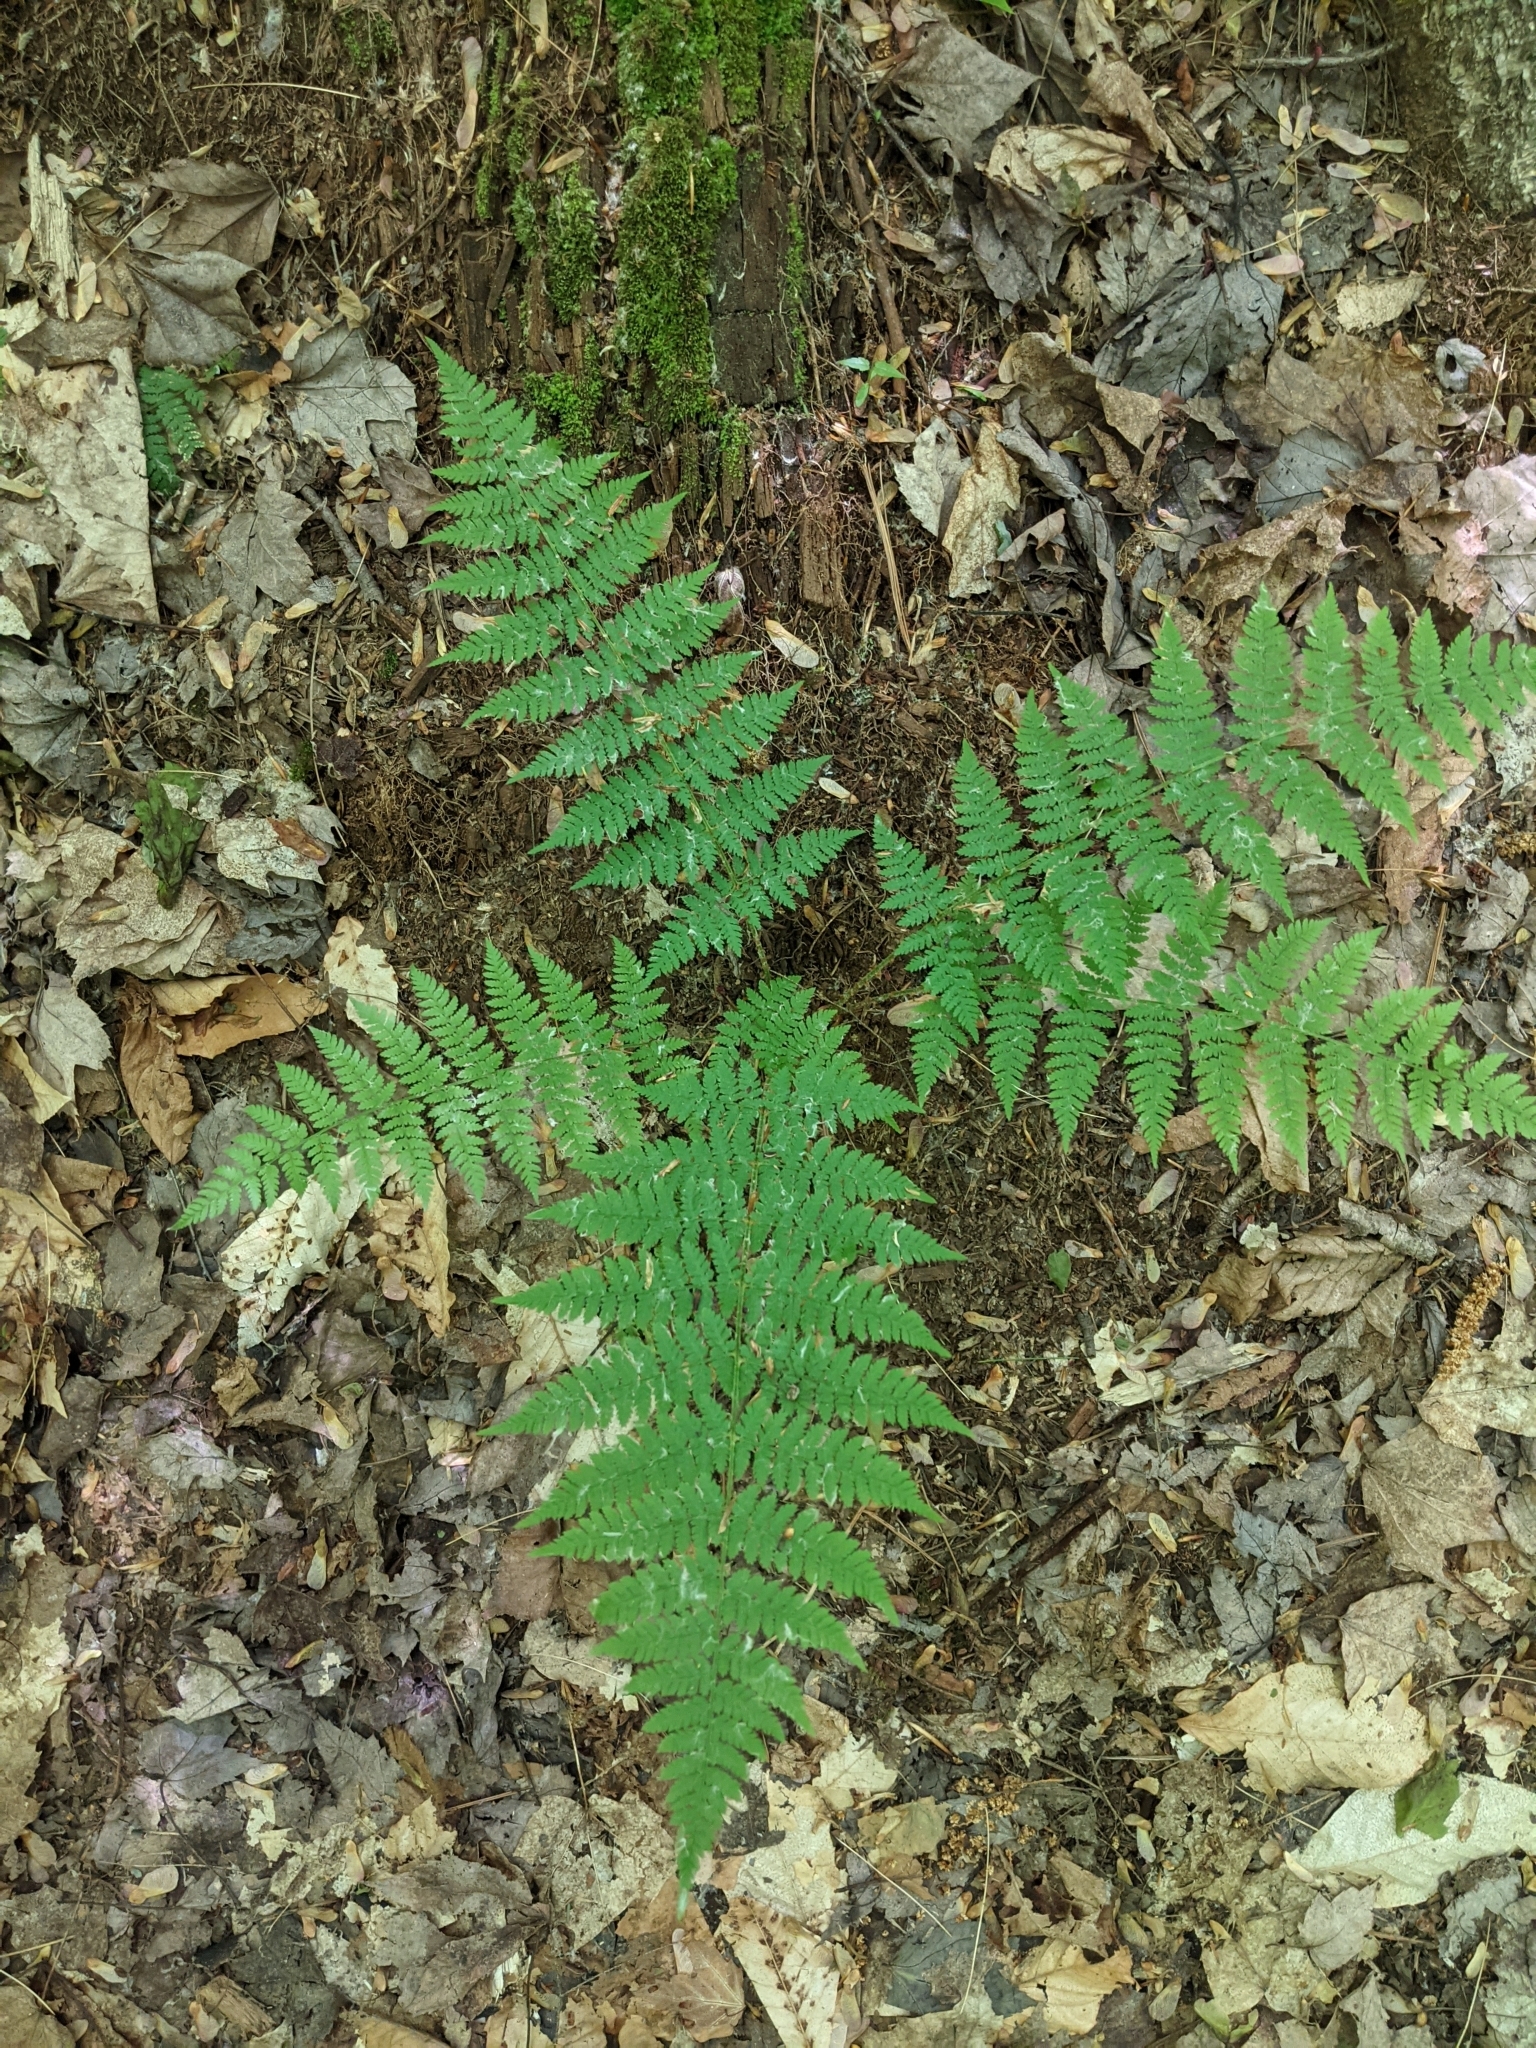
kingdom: Plantae
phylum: Tracheophyta
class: Polypodiopsida
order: Polypodiales
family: Dryopteridaceae
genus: Dryopteris
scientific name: Dryopteris intermedia
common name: Evergreen wood fern
